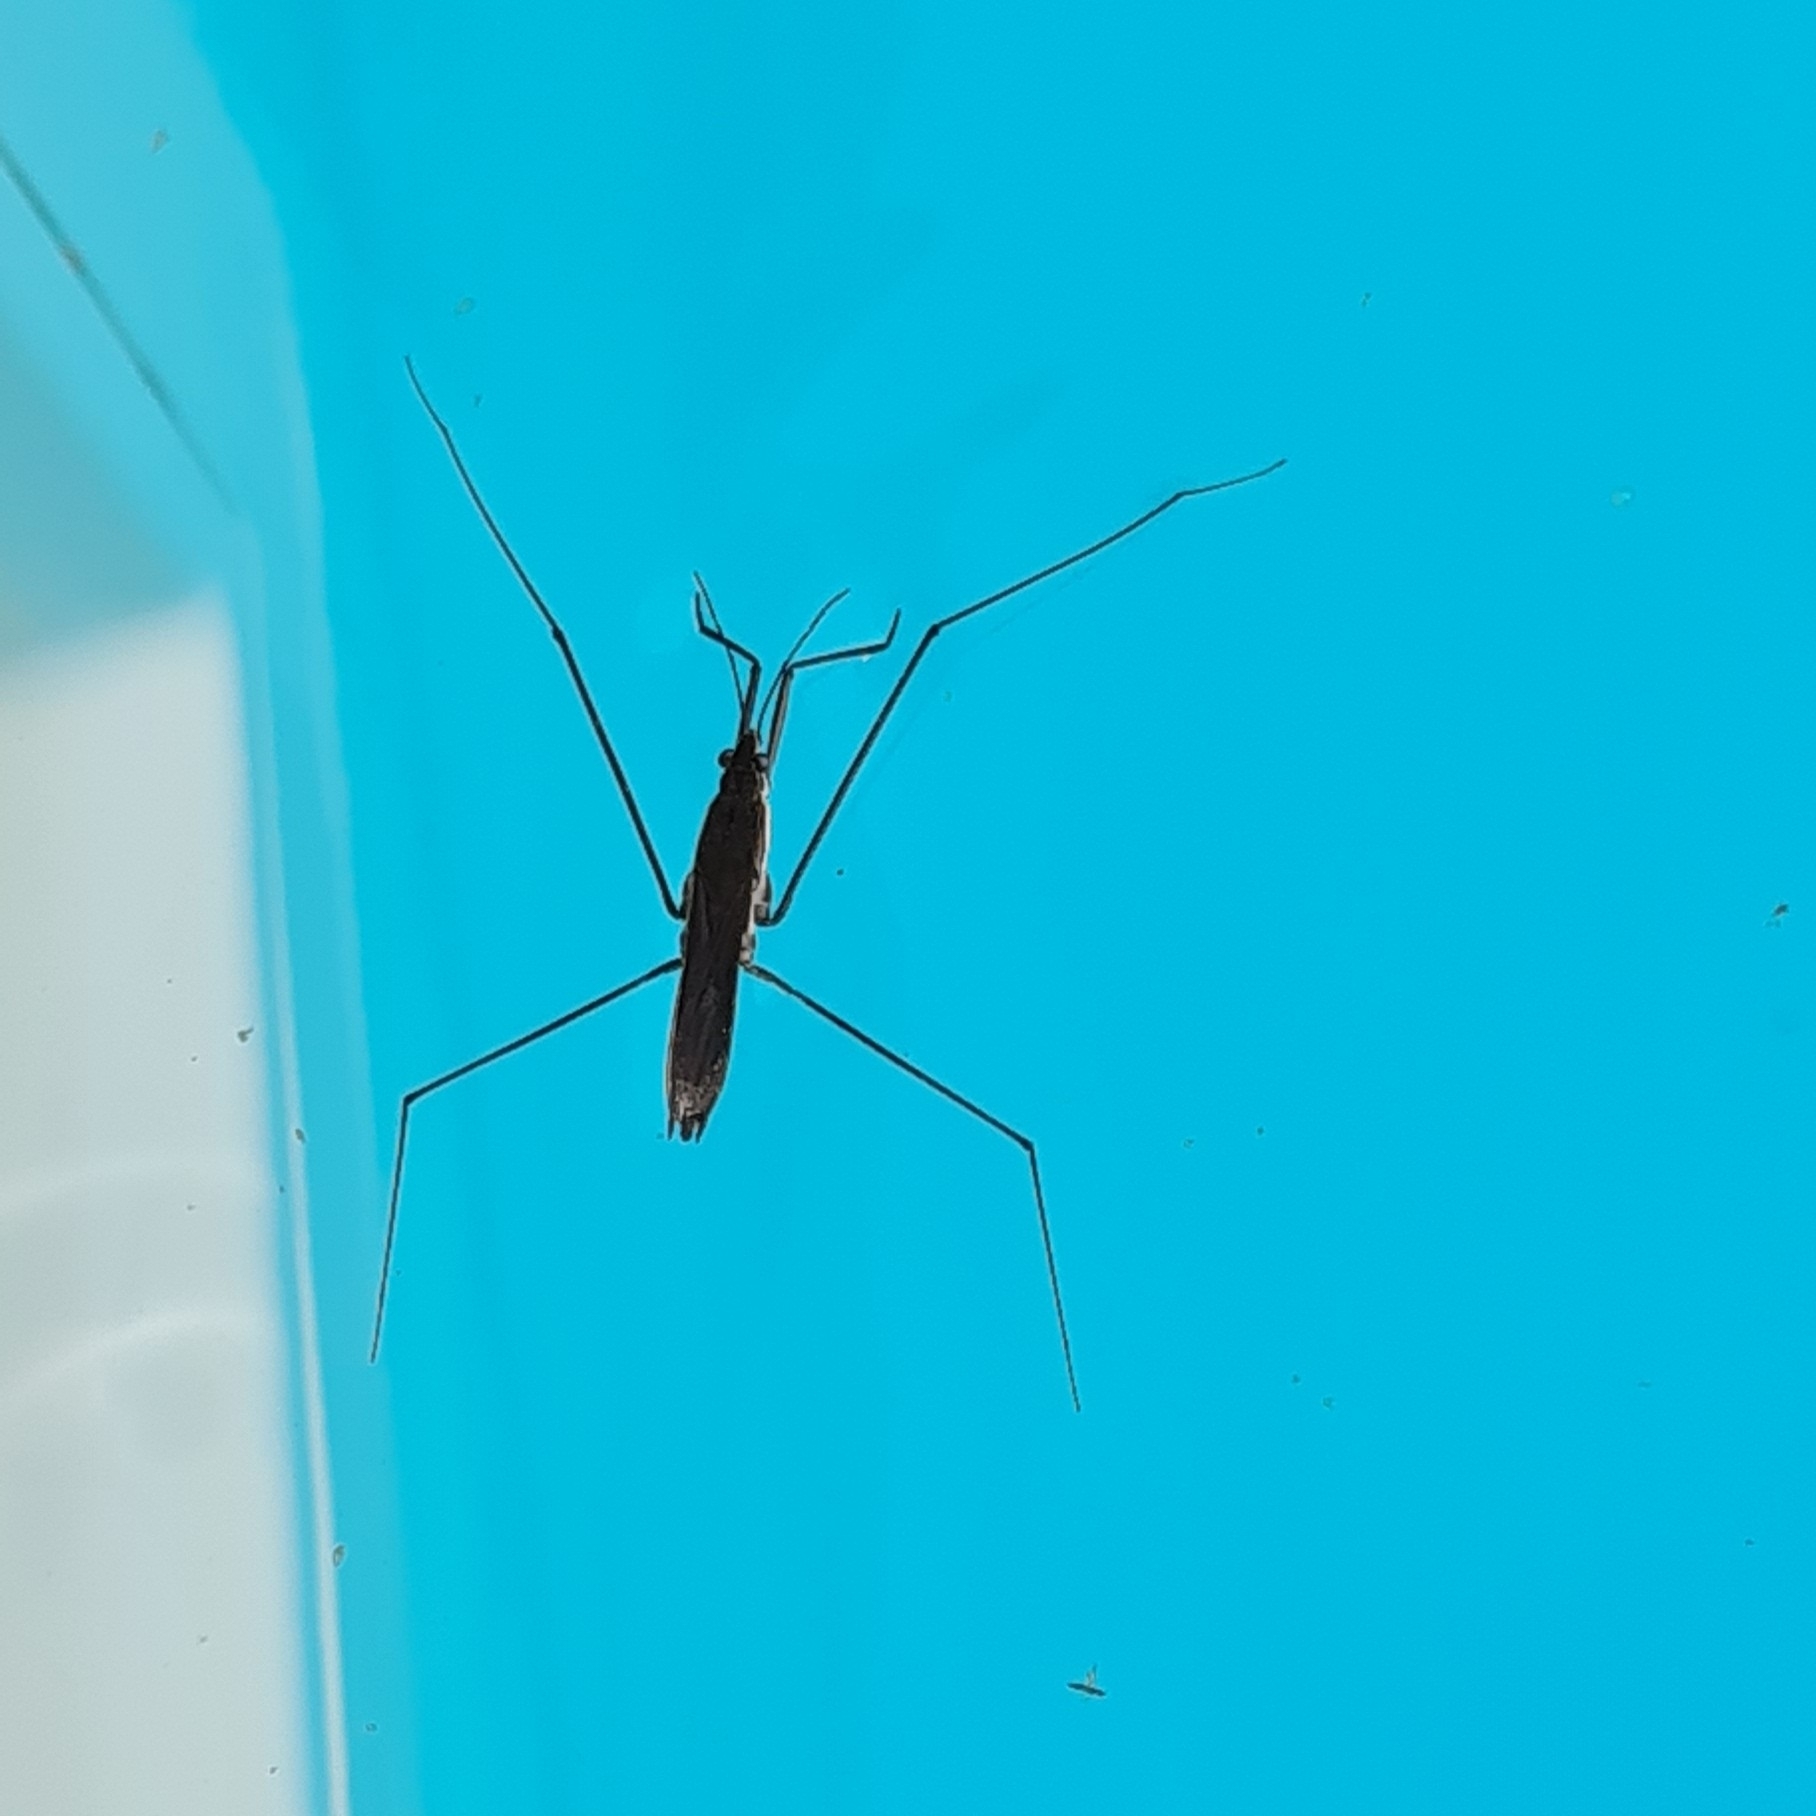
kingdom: Animalia
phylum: Arthropoda
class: Insecta
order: Hemiptera
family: Gerridae
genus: Aquarius
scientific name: Aquarius paludum
